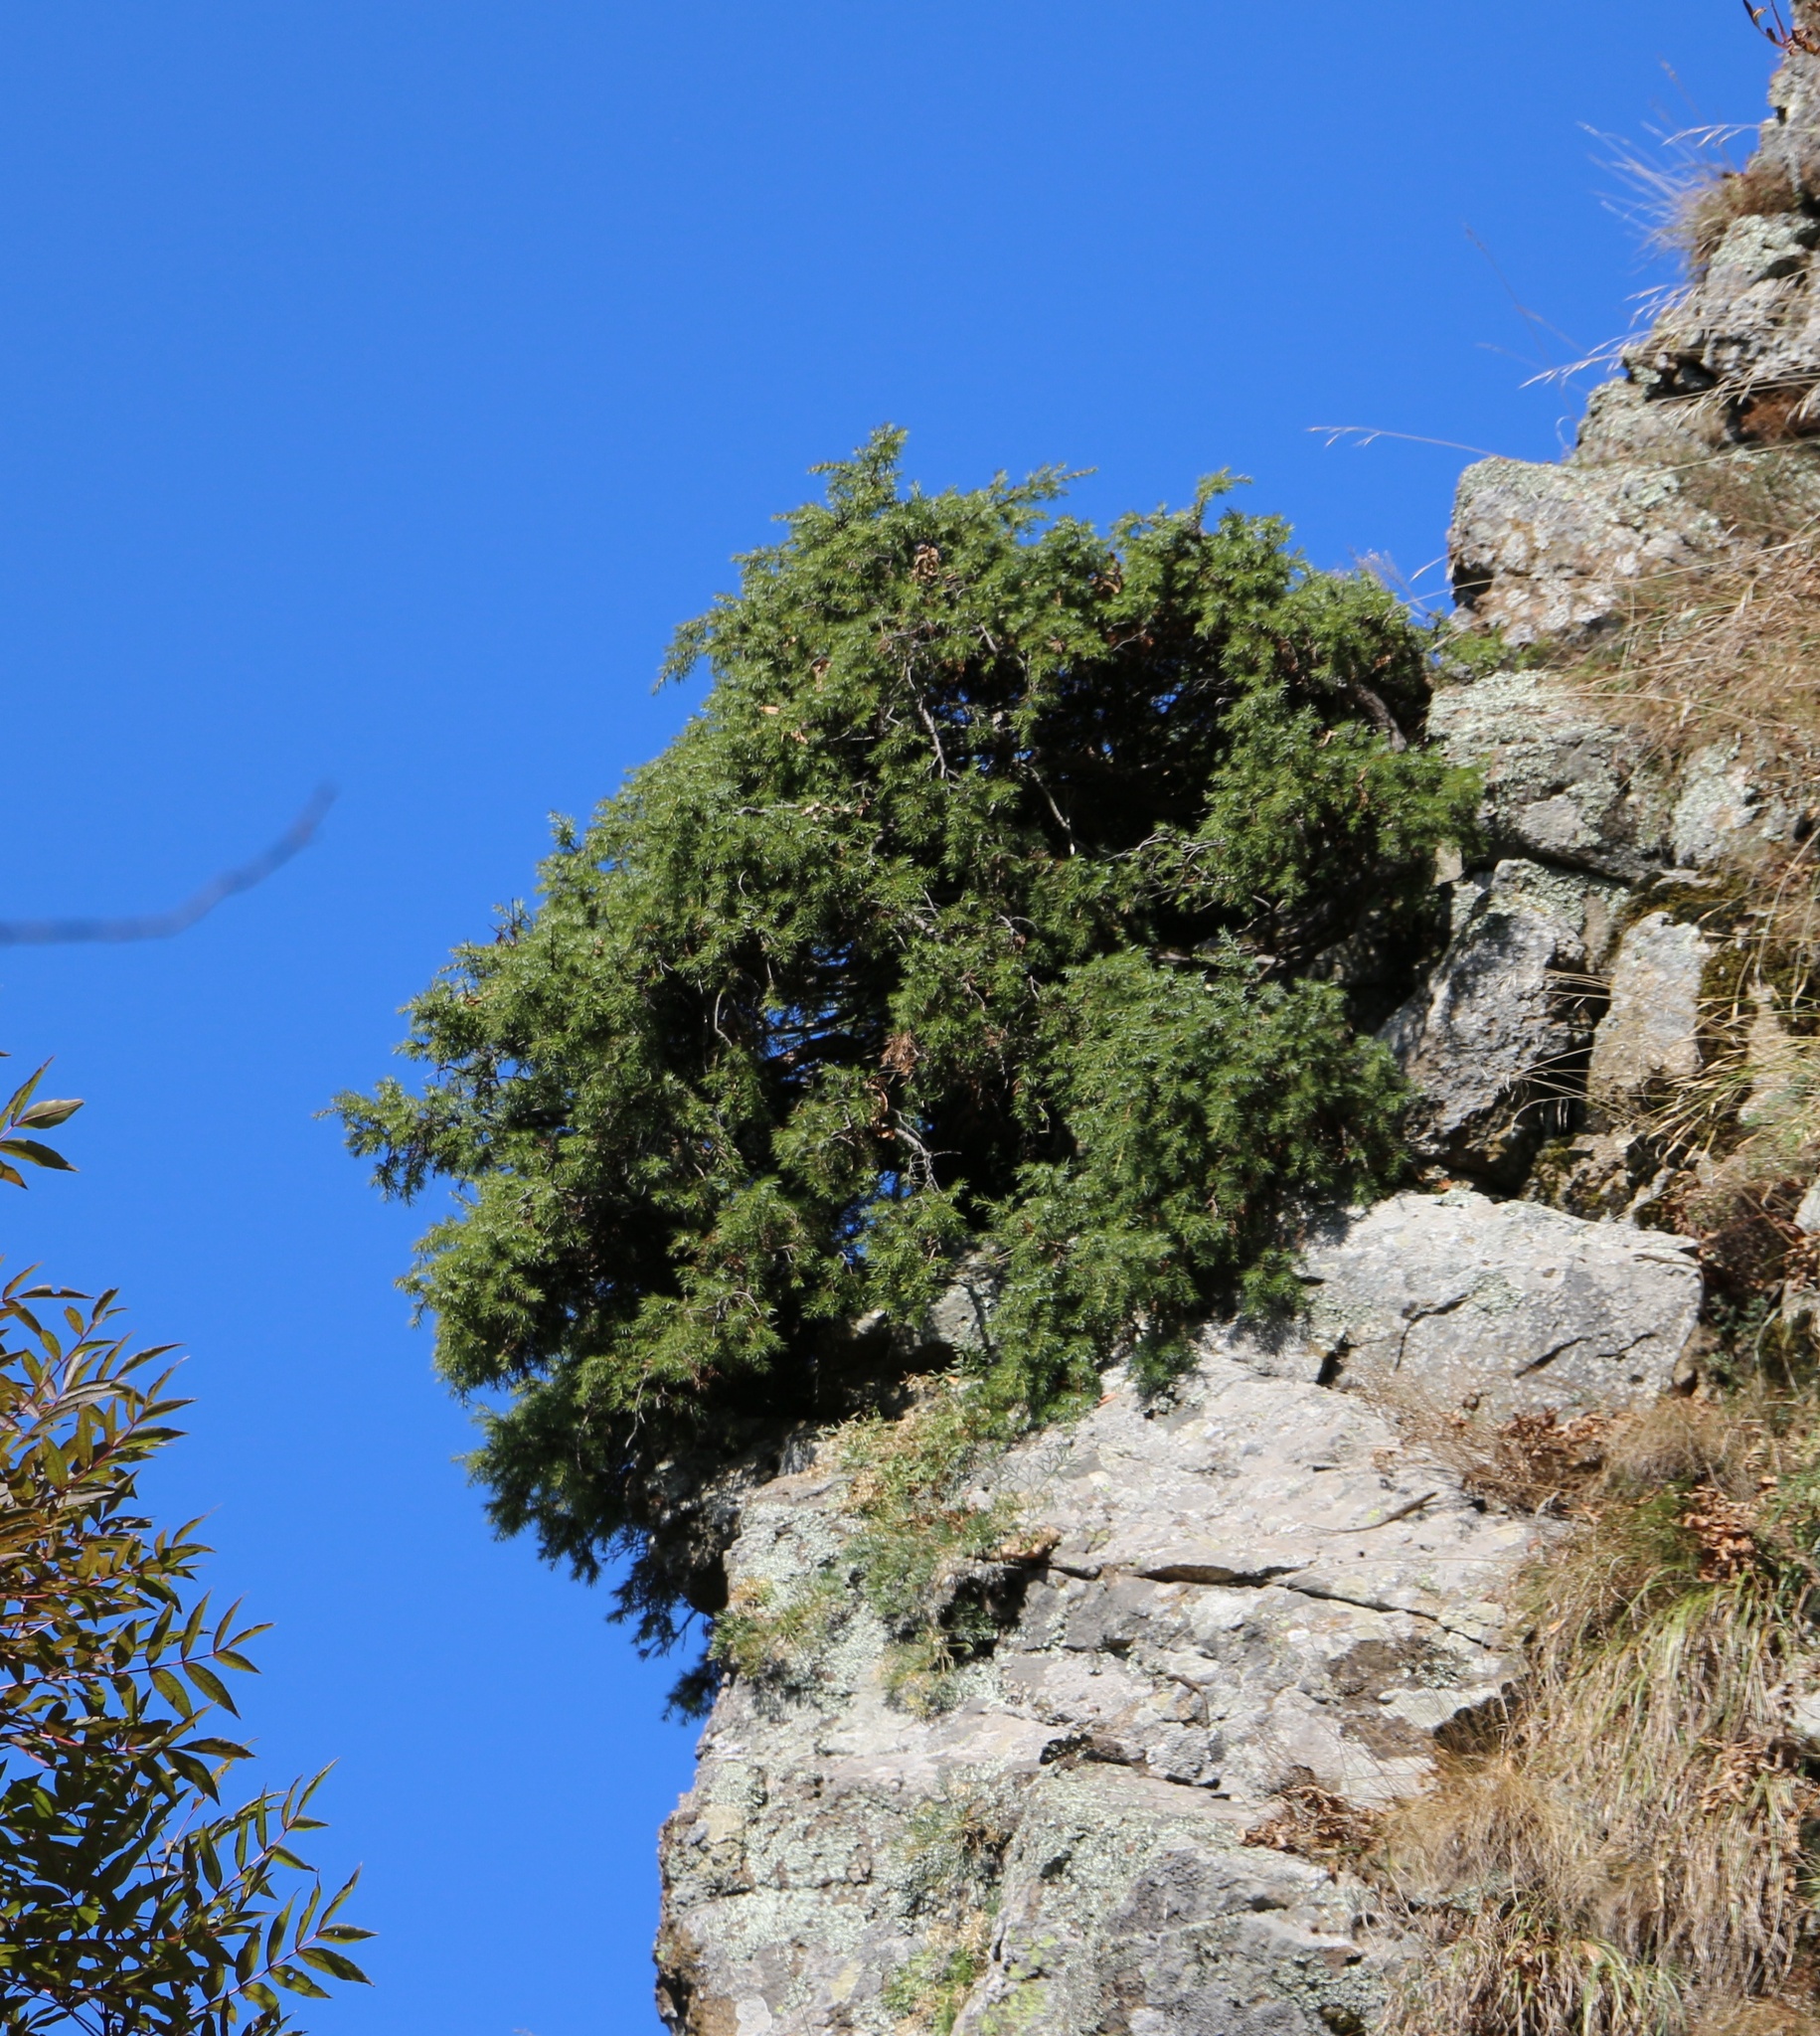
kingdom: Plantae
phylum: Tracheophyta
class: Pinopsida
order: Pinales
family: Cupressaceae
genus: Juniperus
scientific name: Juniperus communis
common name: Common juniper
